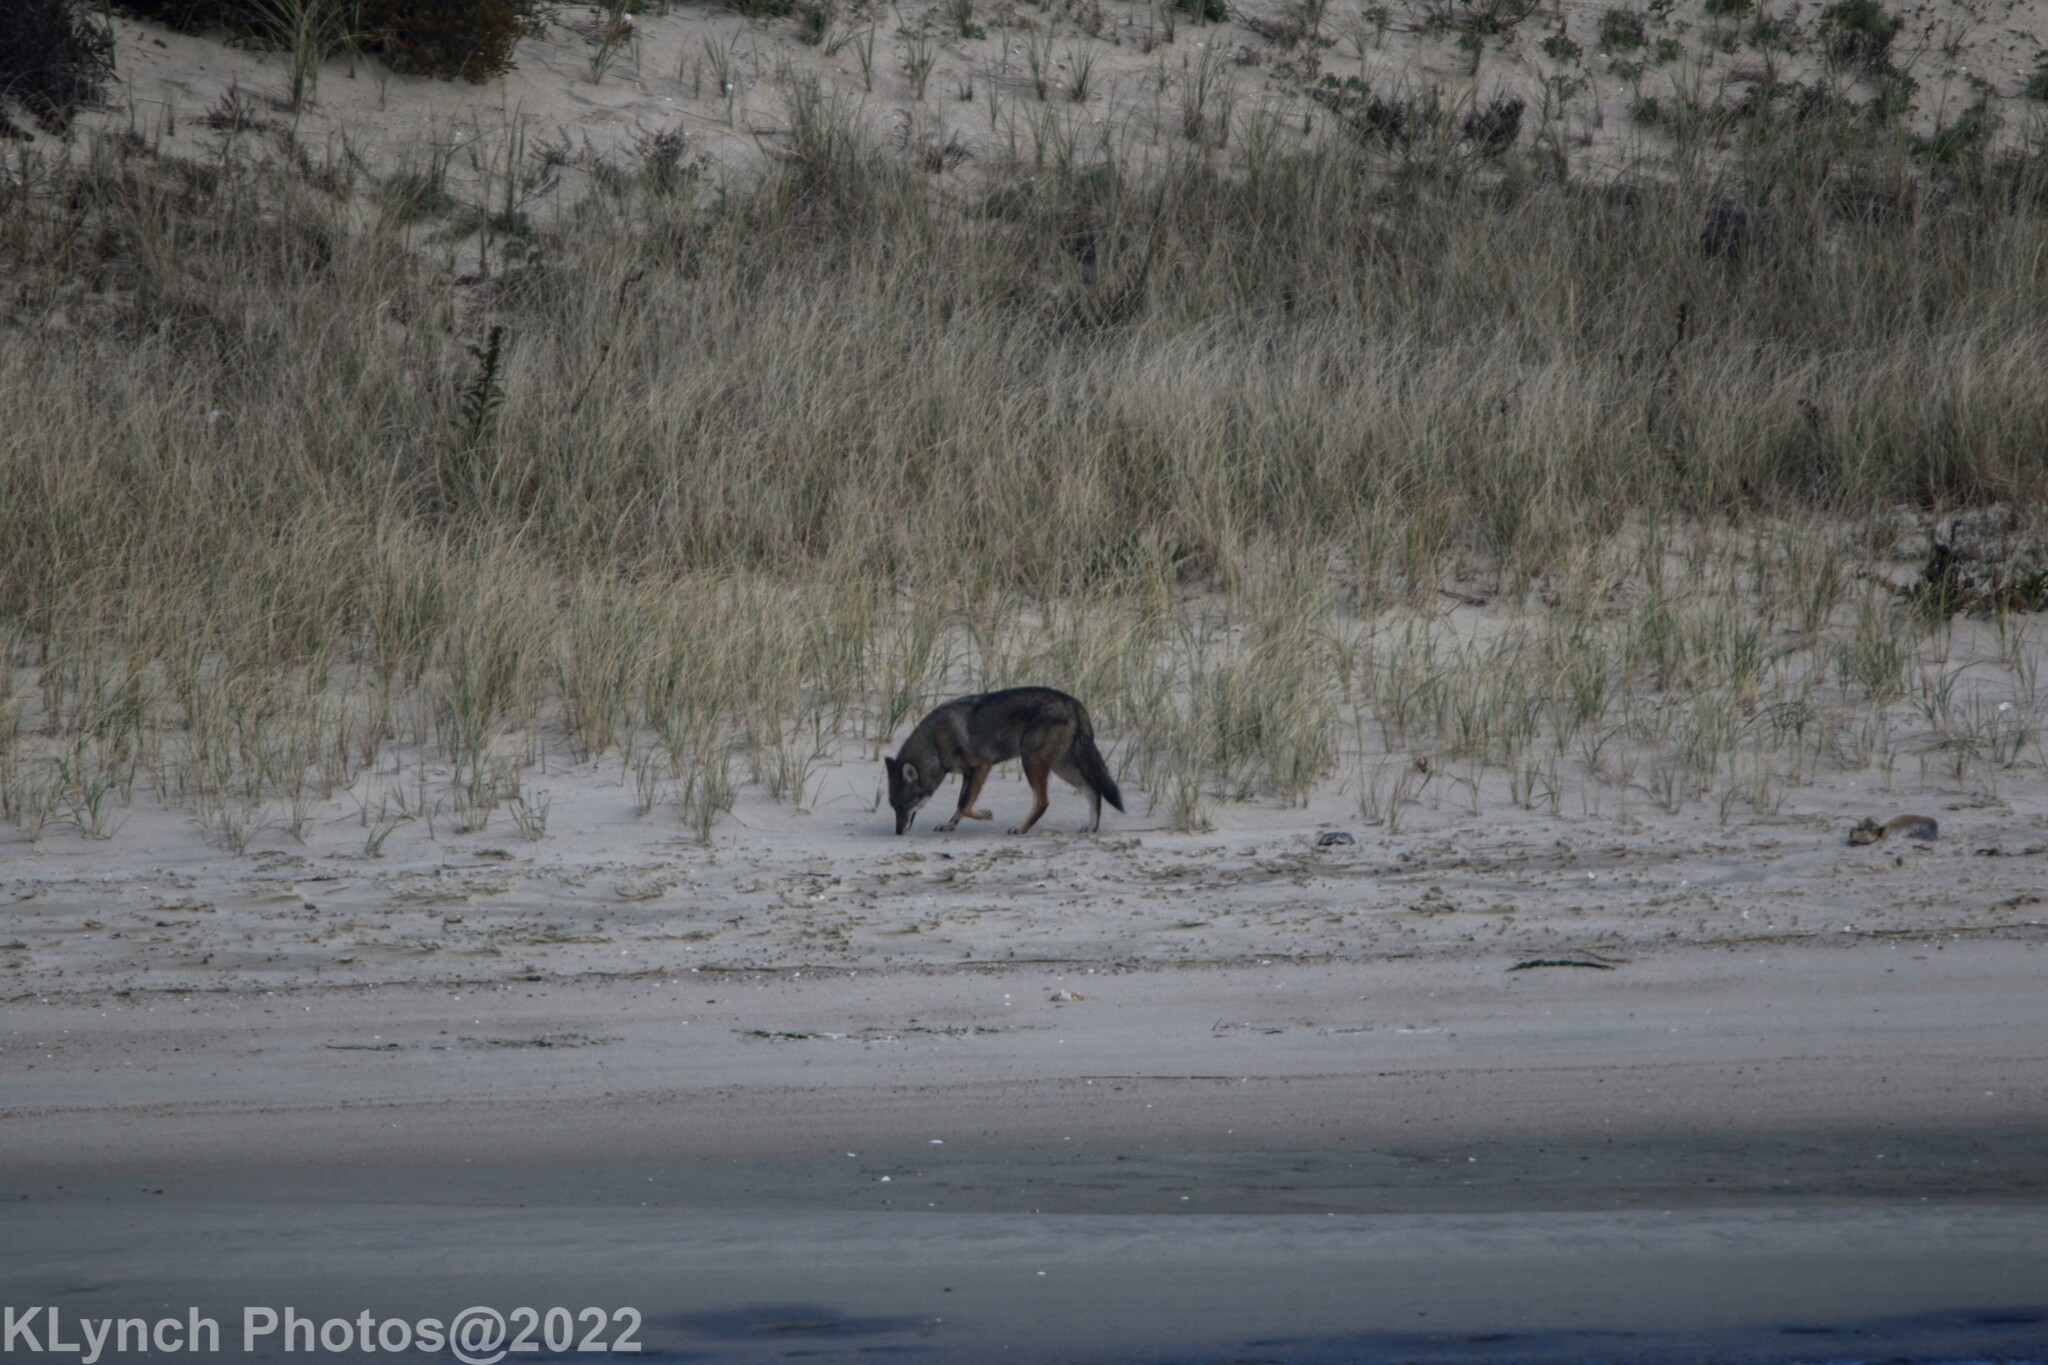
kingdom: Animalia
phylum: Chordata
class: Mammalia
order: Carnivora
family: Canidae
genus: Canis
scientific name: Canis latrans
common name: Coyote
